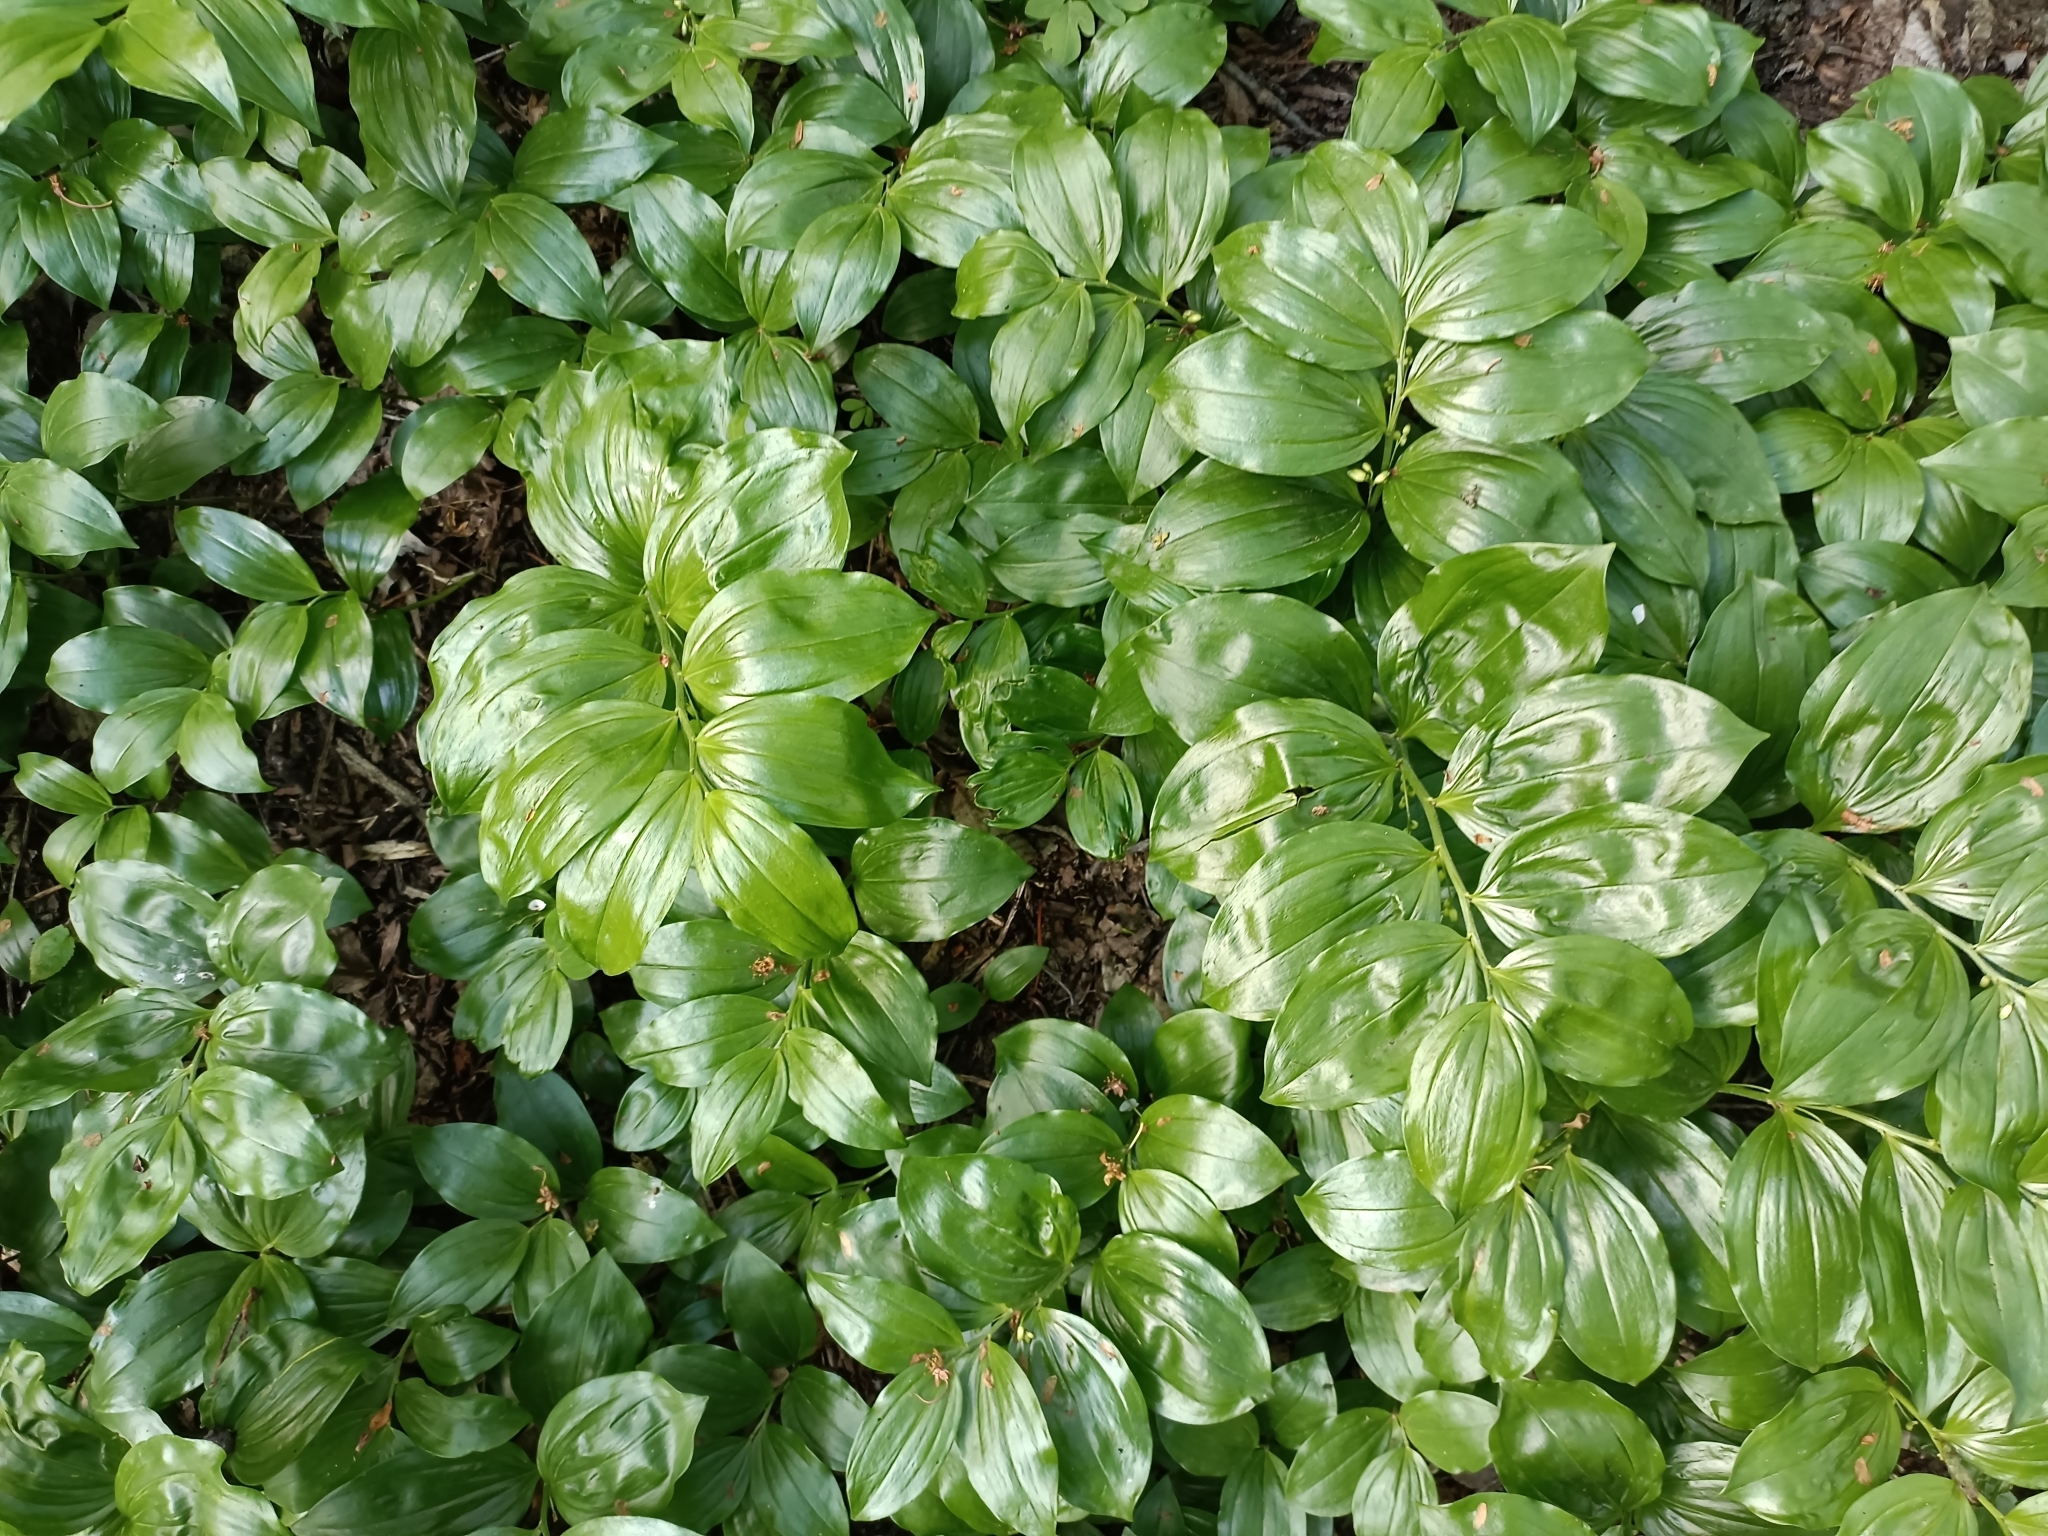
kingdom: Plantae
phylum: Tracheophyta
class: Liliopsida
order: Asparagales
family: Asparagaceae
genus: Polygonatum
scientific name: Polygonatum latifolium
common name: Broadleaf solomon's seal
